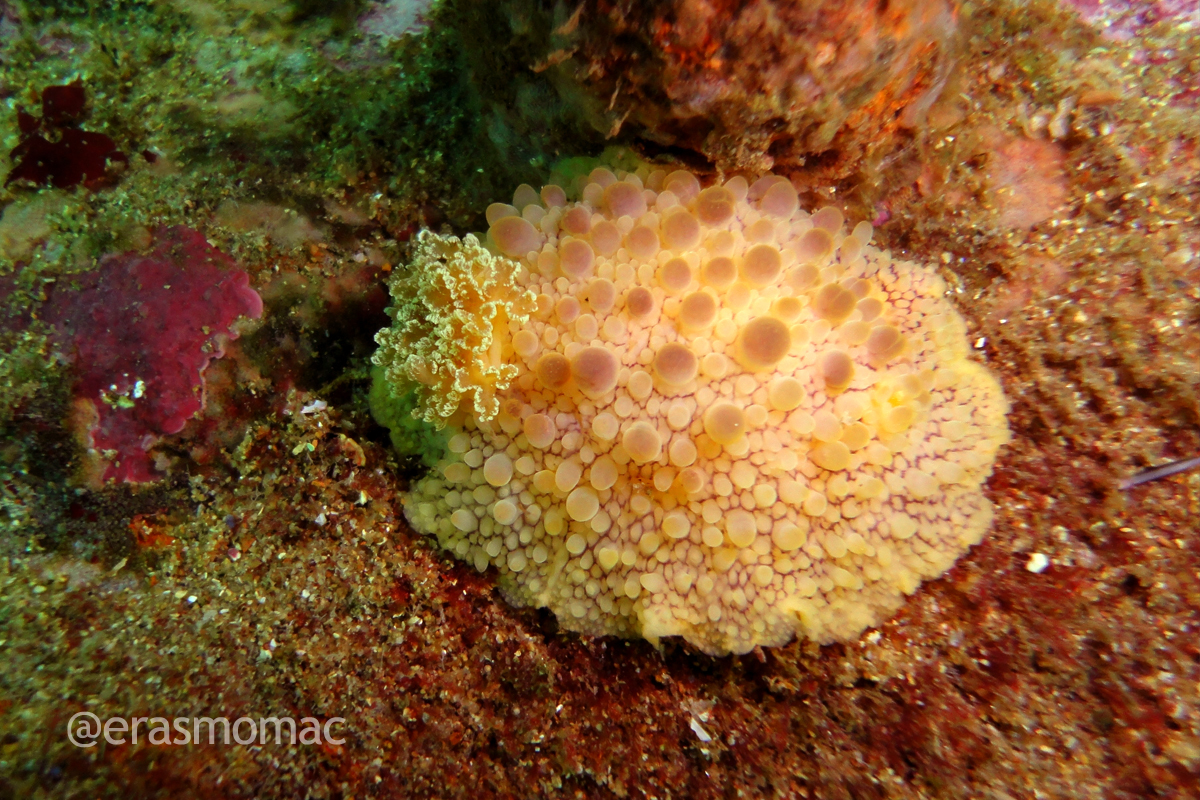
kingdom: Animalia
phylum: Mollusca
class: Gastropoda
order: Nudibranchia
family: Dorididae
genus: Doris
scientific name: Doris fontainii
